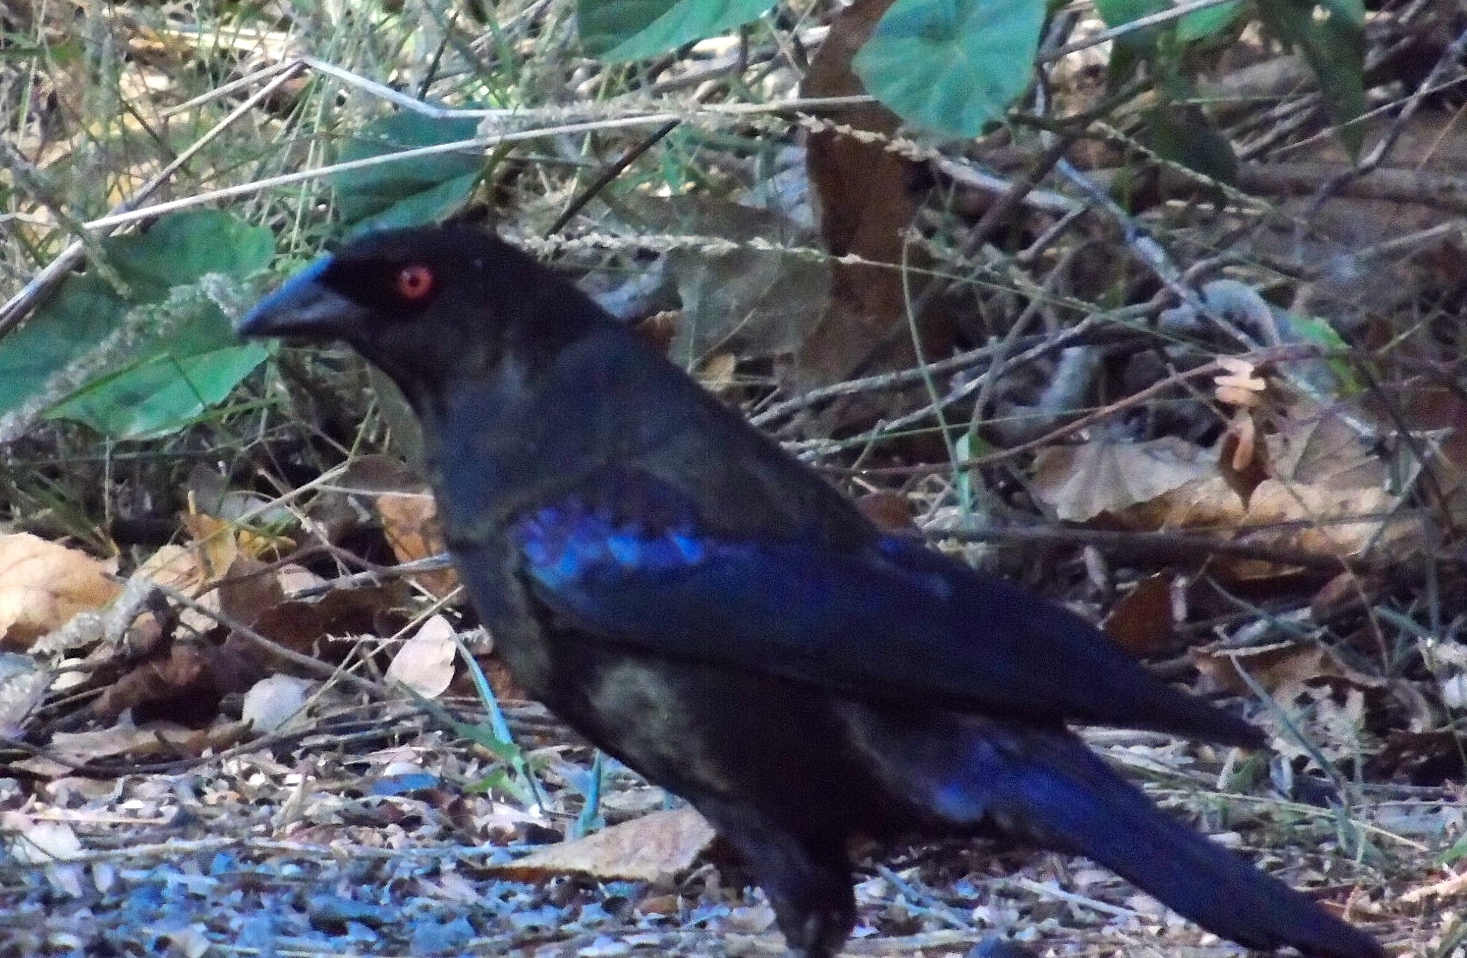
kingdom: Animalia
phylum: Chordata
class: Aves
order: Passeriformes
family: Icteridae
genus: Molothrus
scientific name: Molothrus aeneus
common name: Bronzed cowbird
